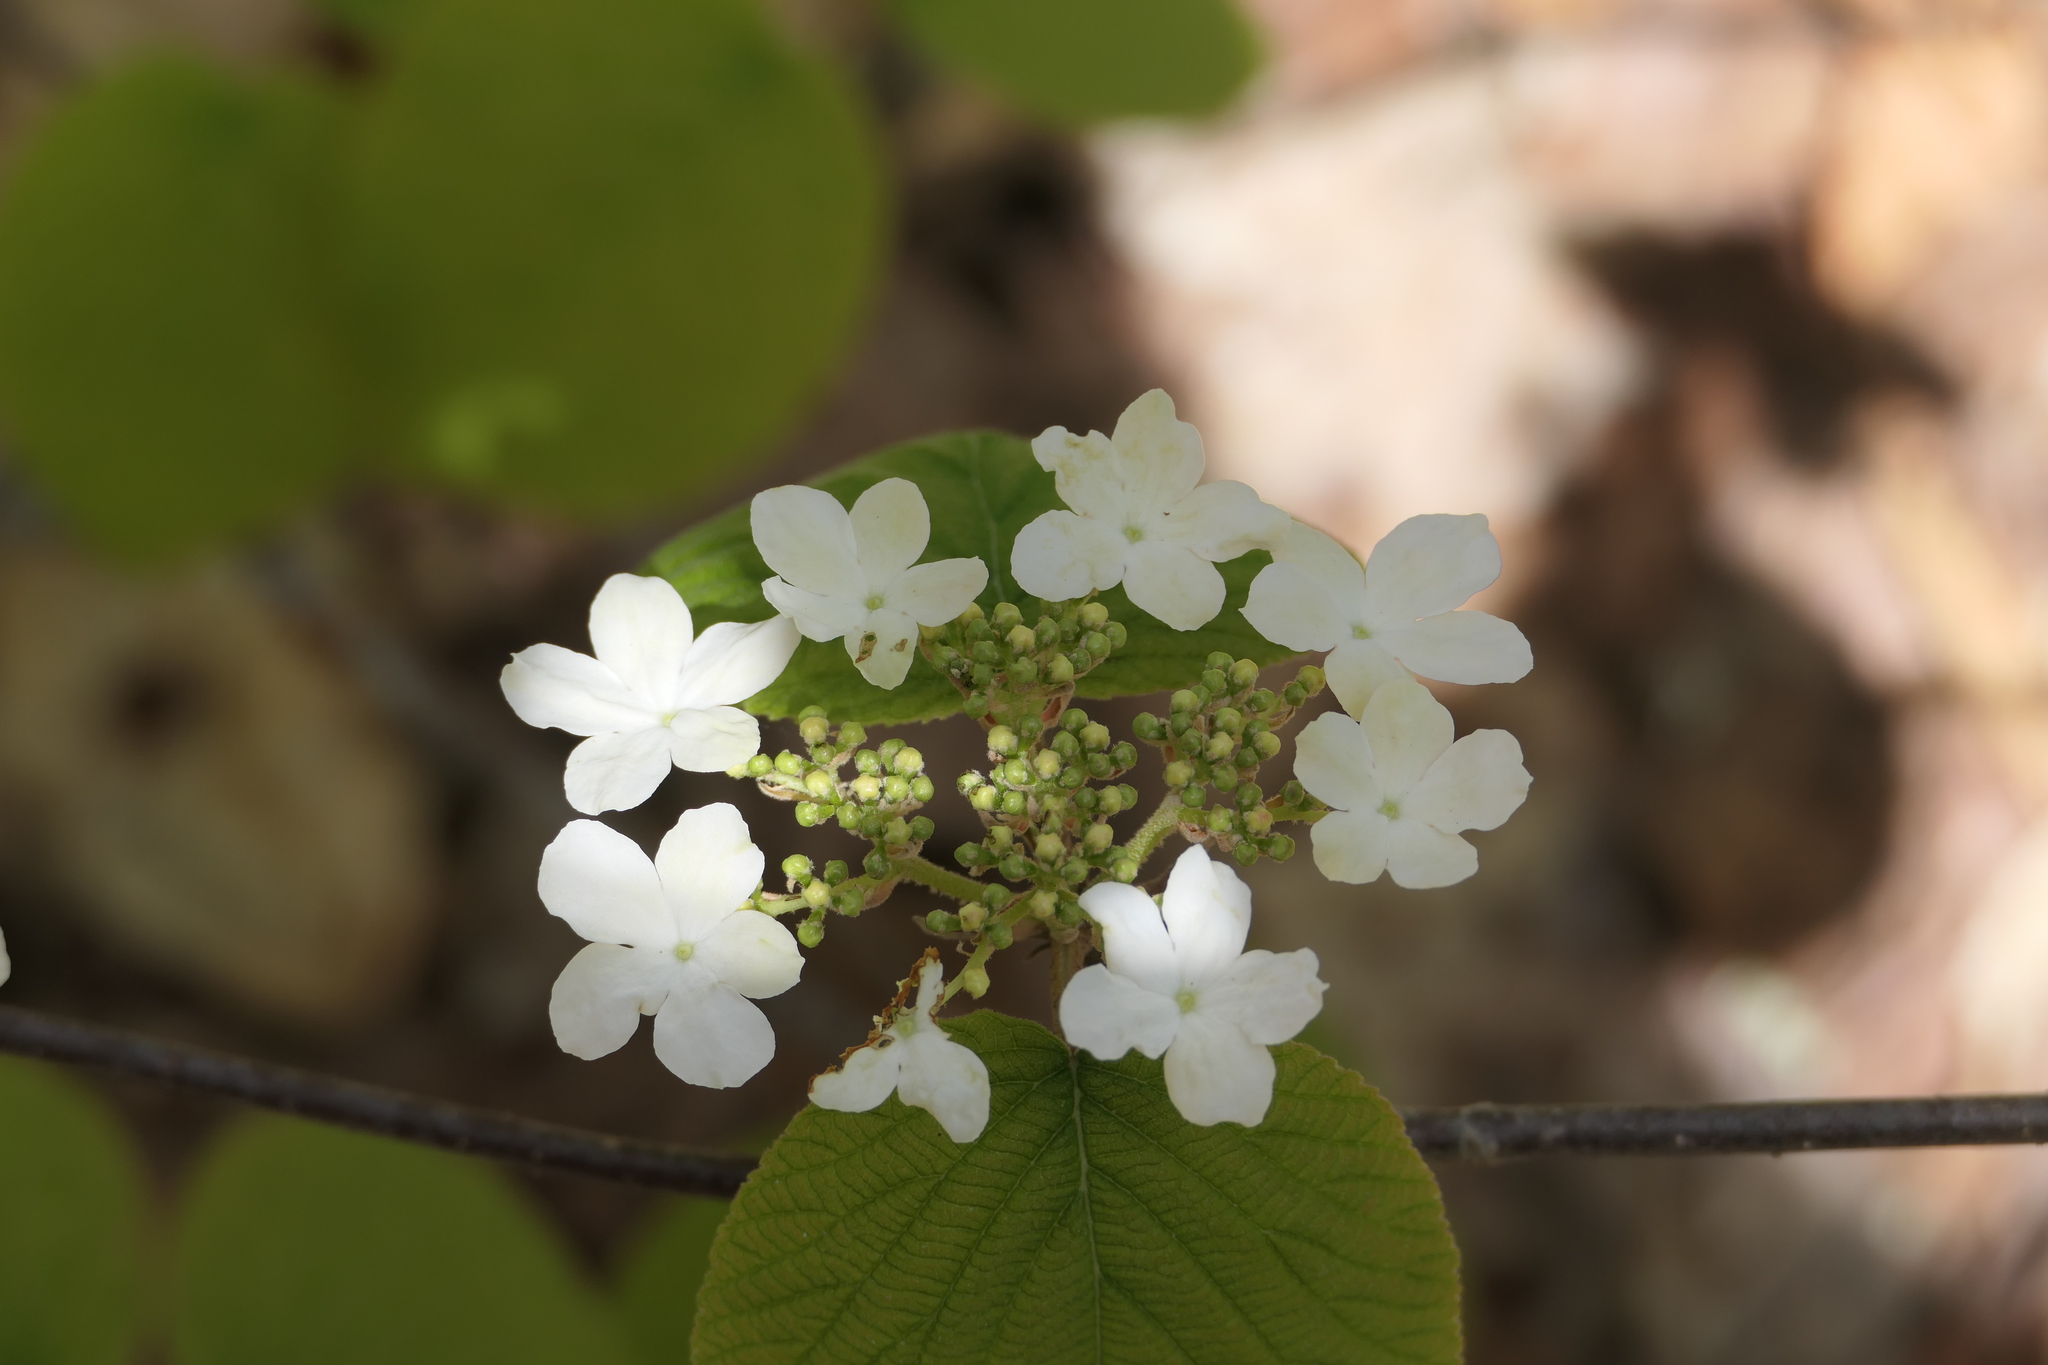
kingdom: Plantae
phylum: Tracheophyta
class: Magnoliopsida
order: Dipsacales
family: Viburnaceae
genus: Viburnum
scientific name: Viburnum lantanoides
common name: Hobblebush
